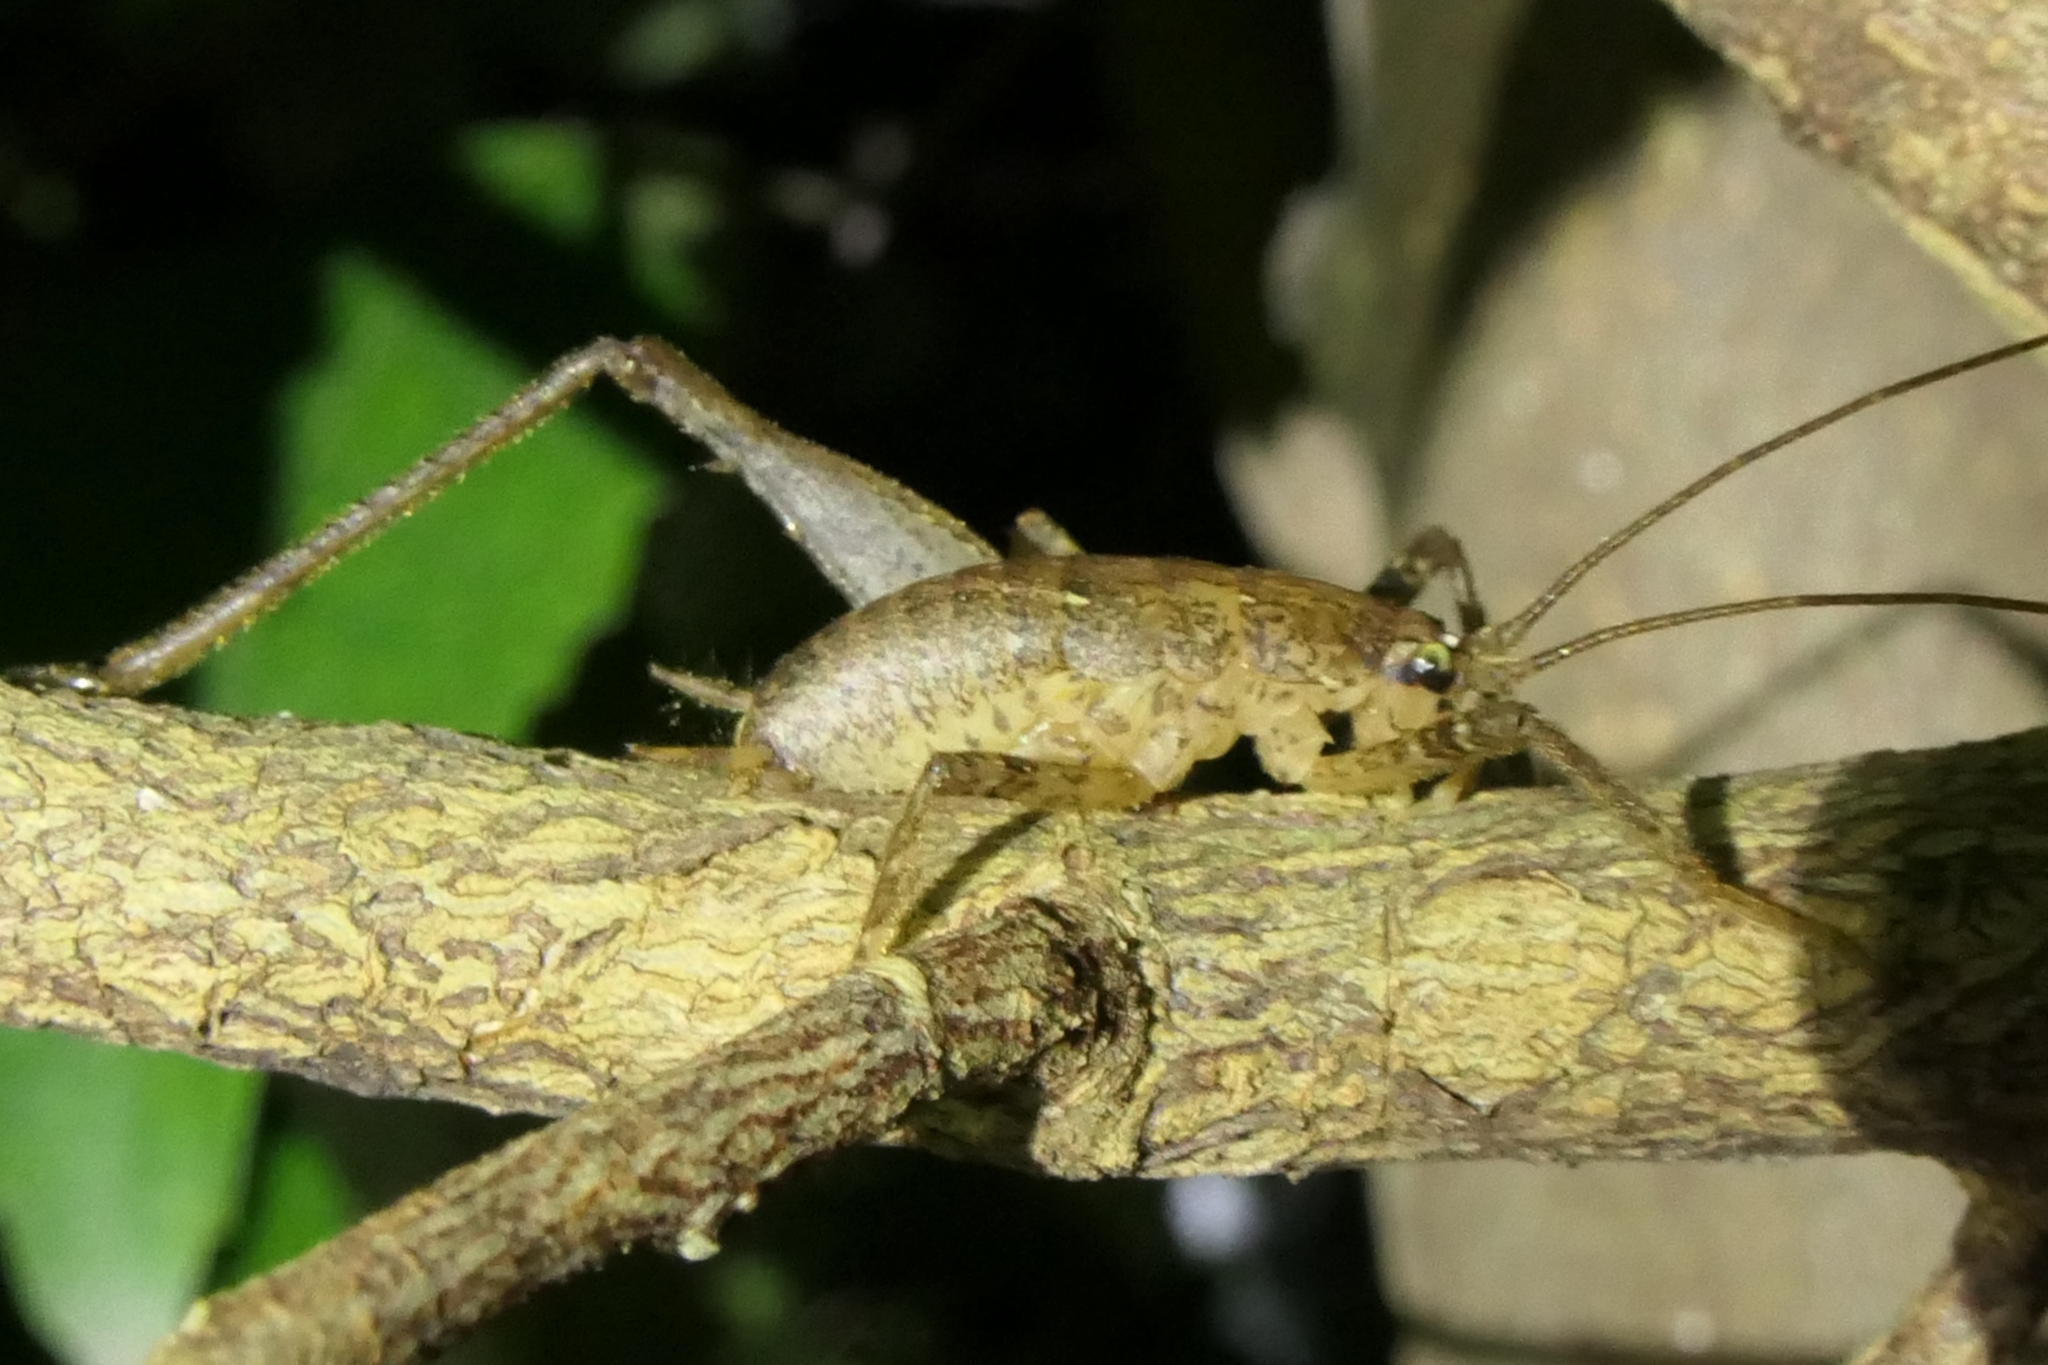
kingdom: Animalia
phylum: Arthropoda
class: Insecta
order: Orthoptera
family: Rhaphidophoridae
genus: Isoplectron
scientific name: Isoplectron armatum
